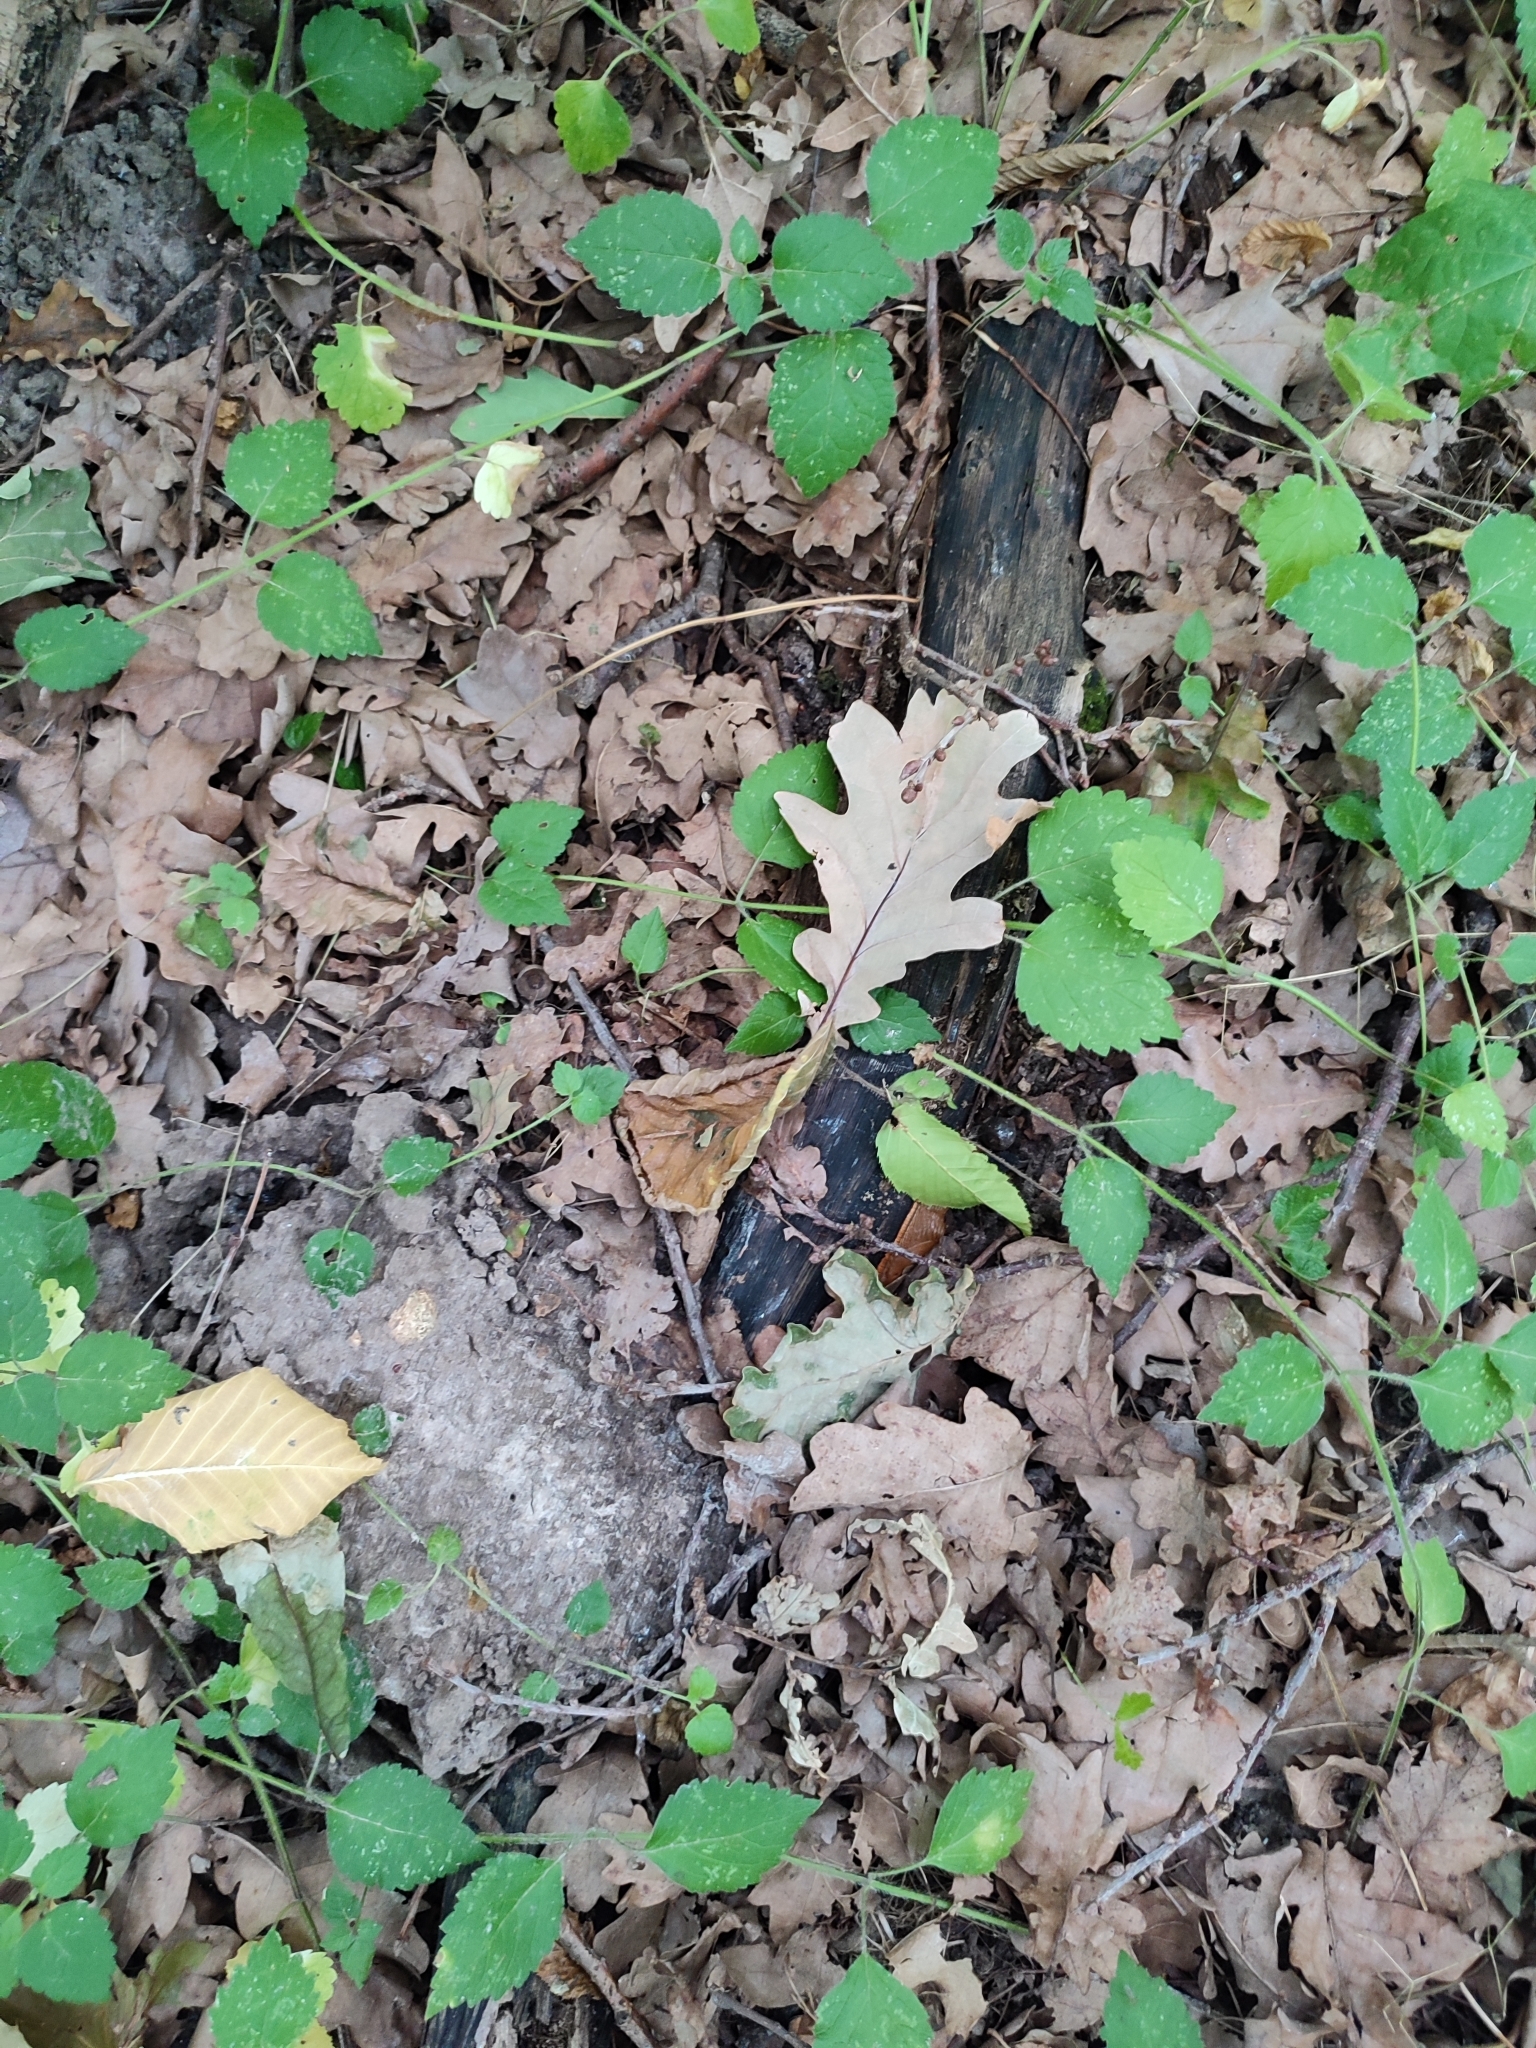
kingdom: Plantae
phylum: Tracheophyta
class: Magnoliopsida
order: Fagales
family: Fagaceae
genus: Quercus
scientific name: Quercus robur
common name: Pedunculate oak
